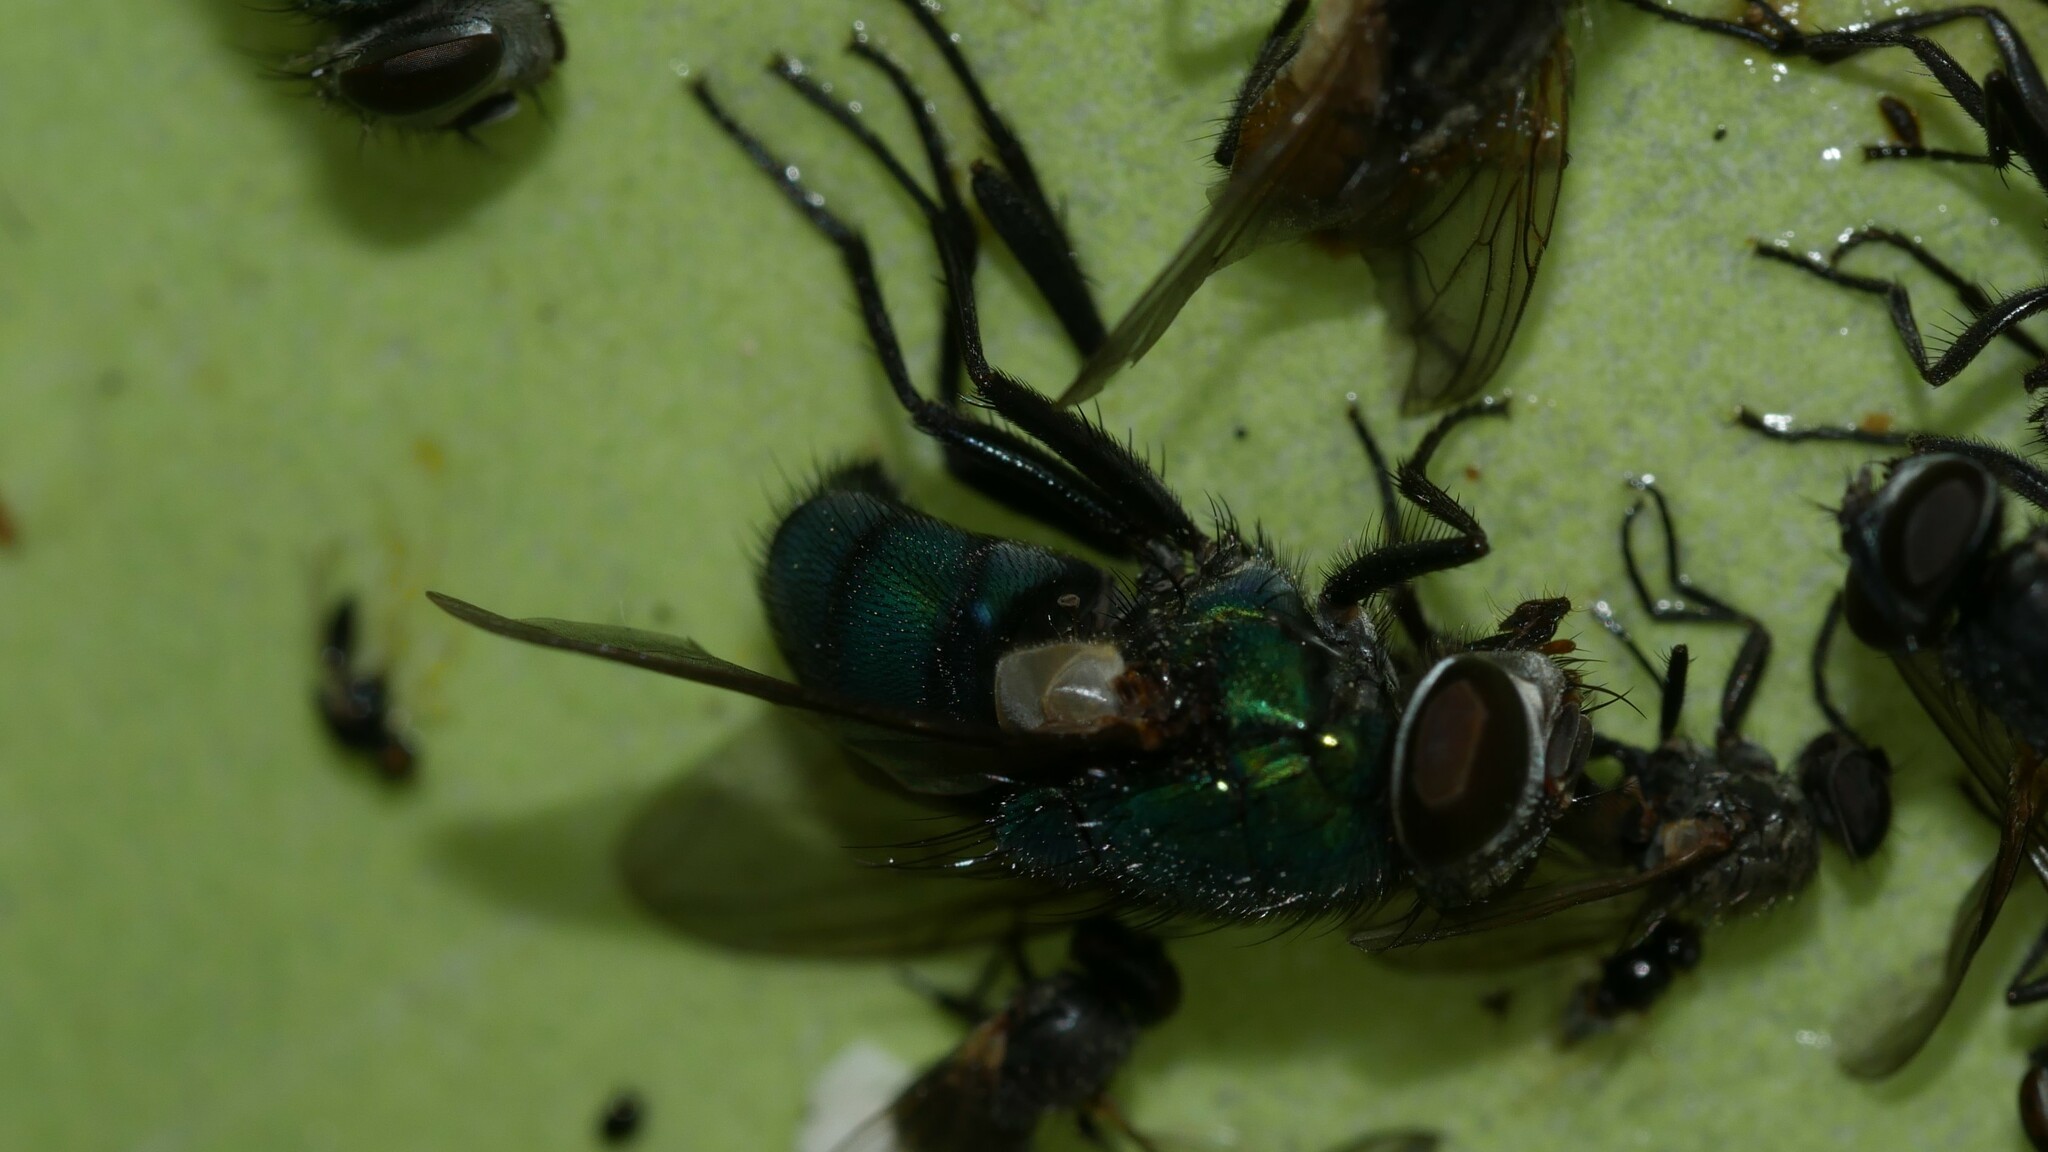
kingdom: Animalia
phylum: Arthropoda
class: Insecta
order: Diptera
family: Calliphoridae
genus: Lucilia
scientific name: Lucilia caeruleiviridis
